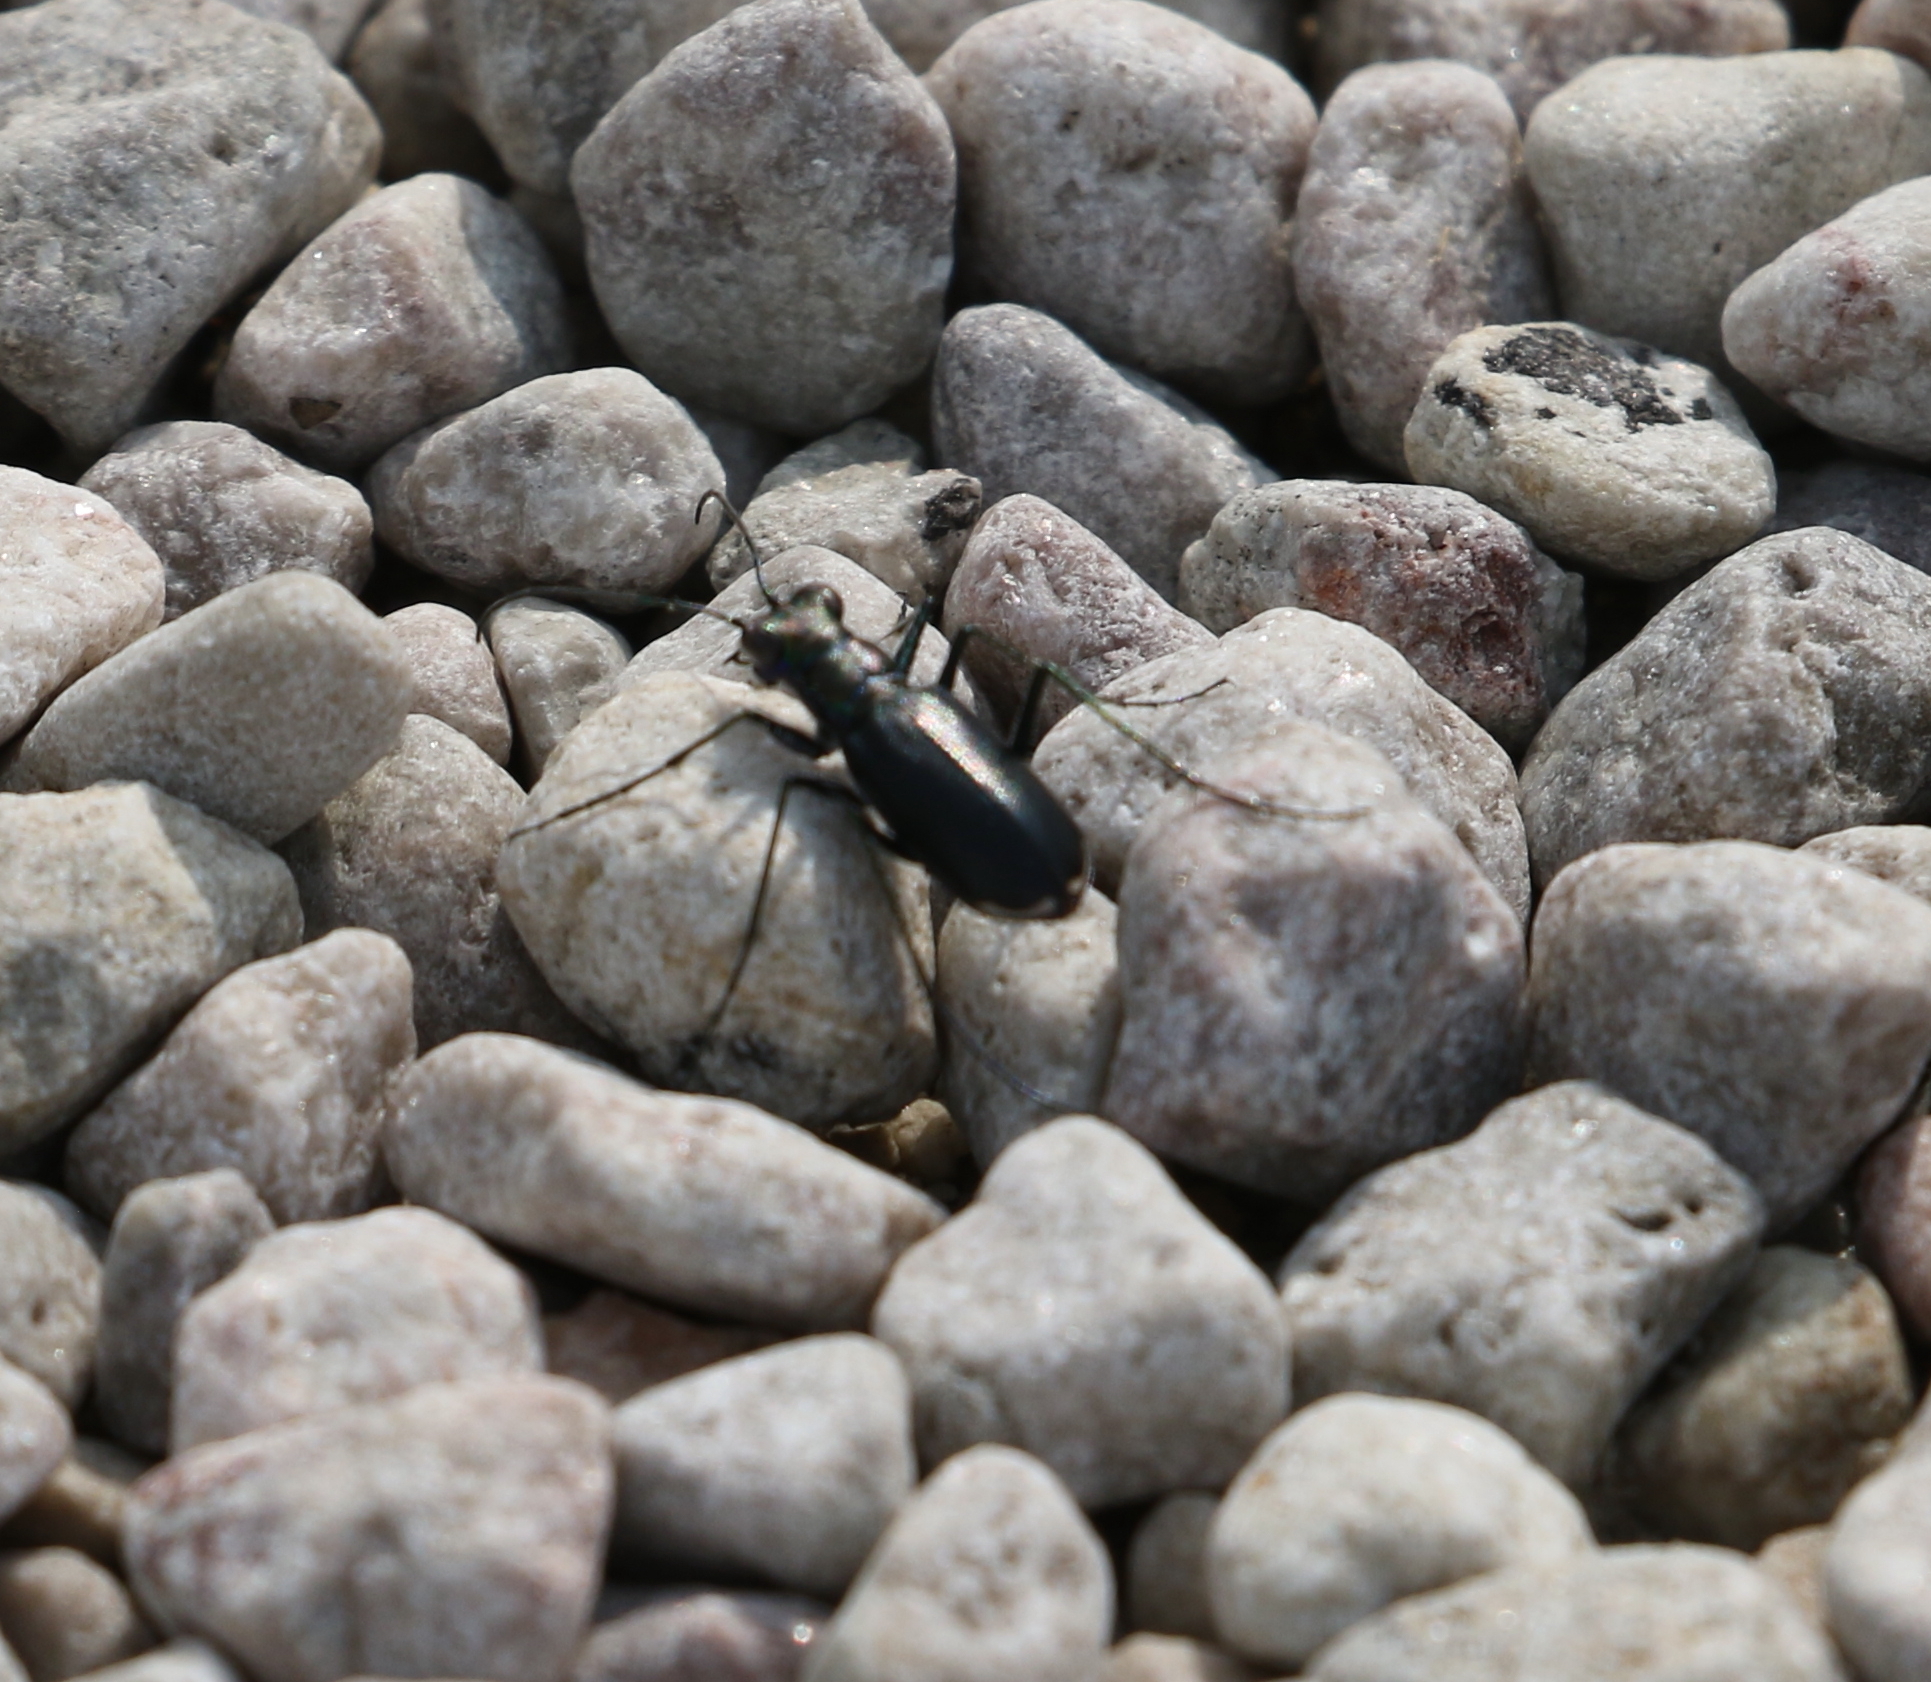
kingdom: Animalia
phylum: Arthropoda
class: Insecta
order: Coleoptera
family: Carabidae
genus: Cicindela
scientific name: Cicindela politula
